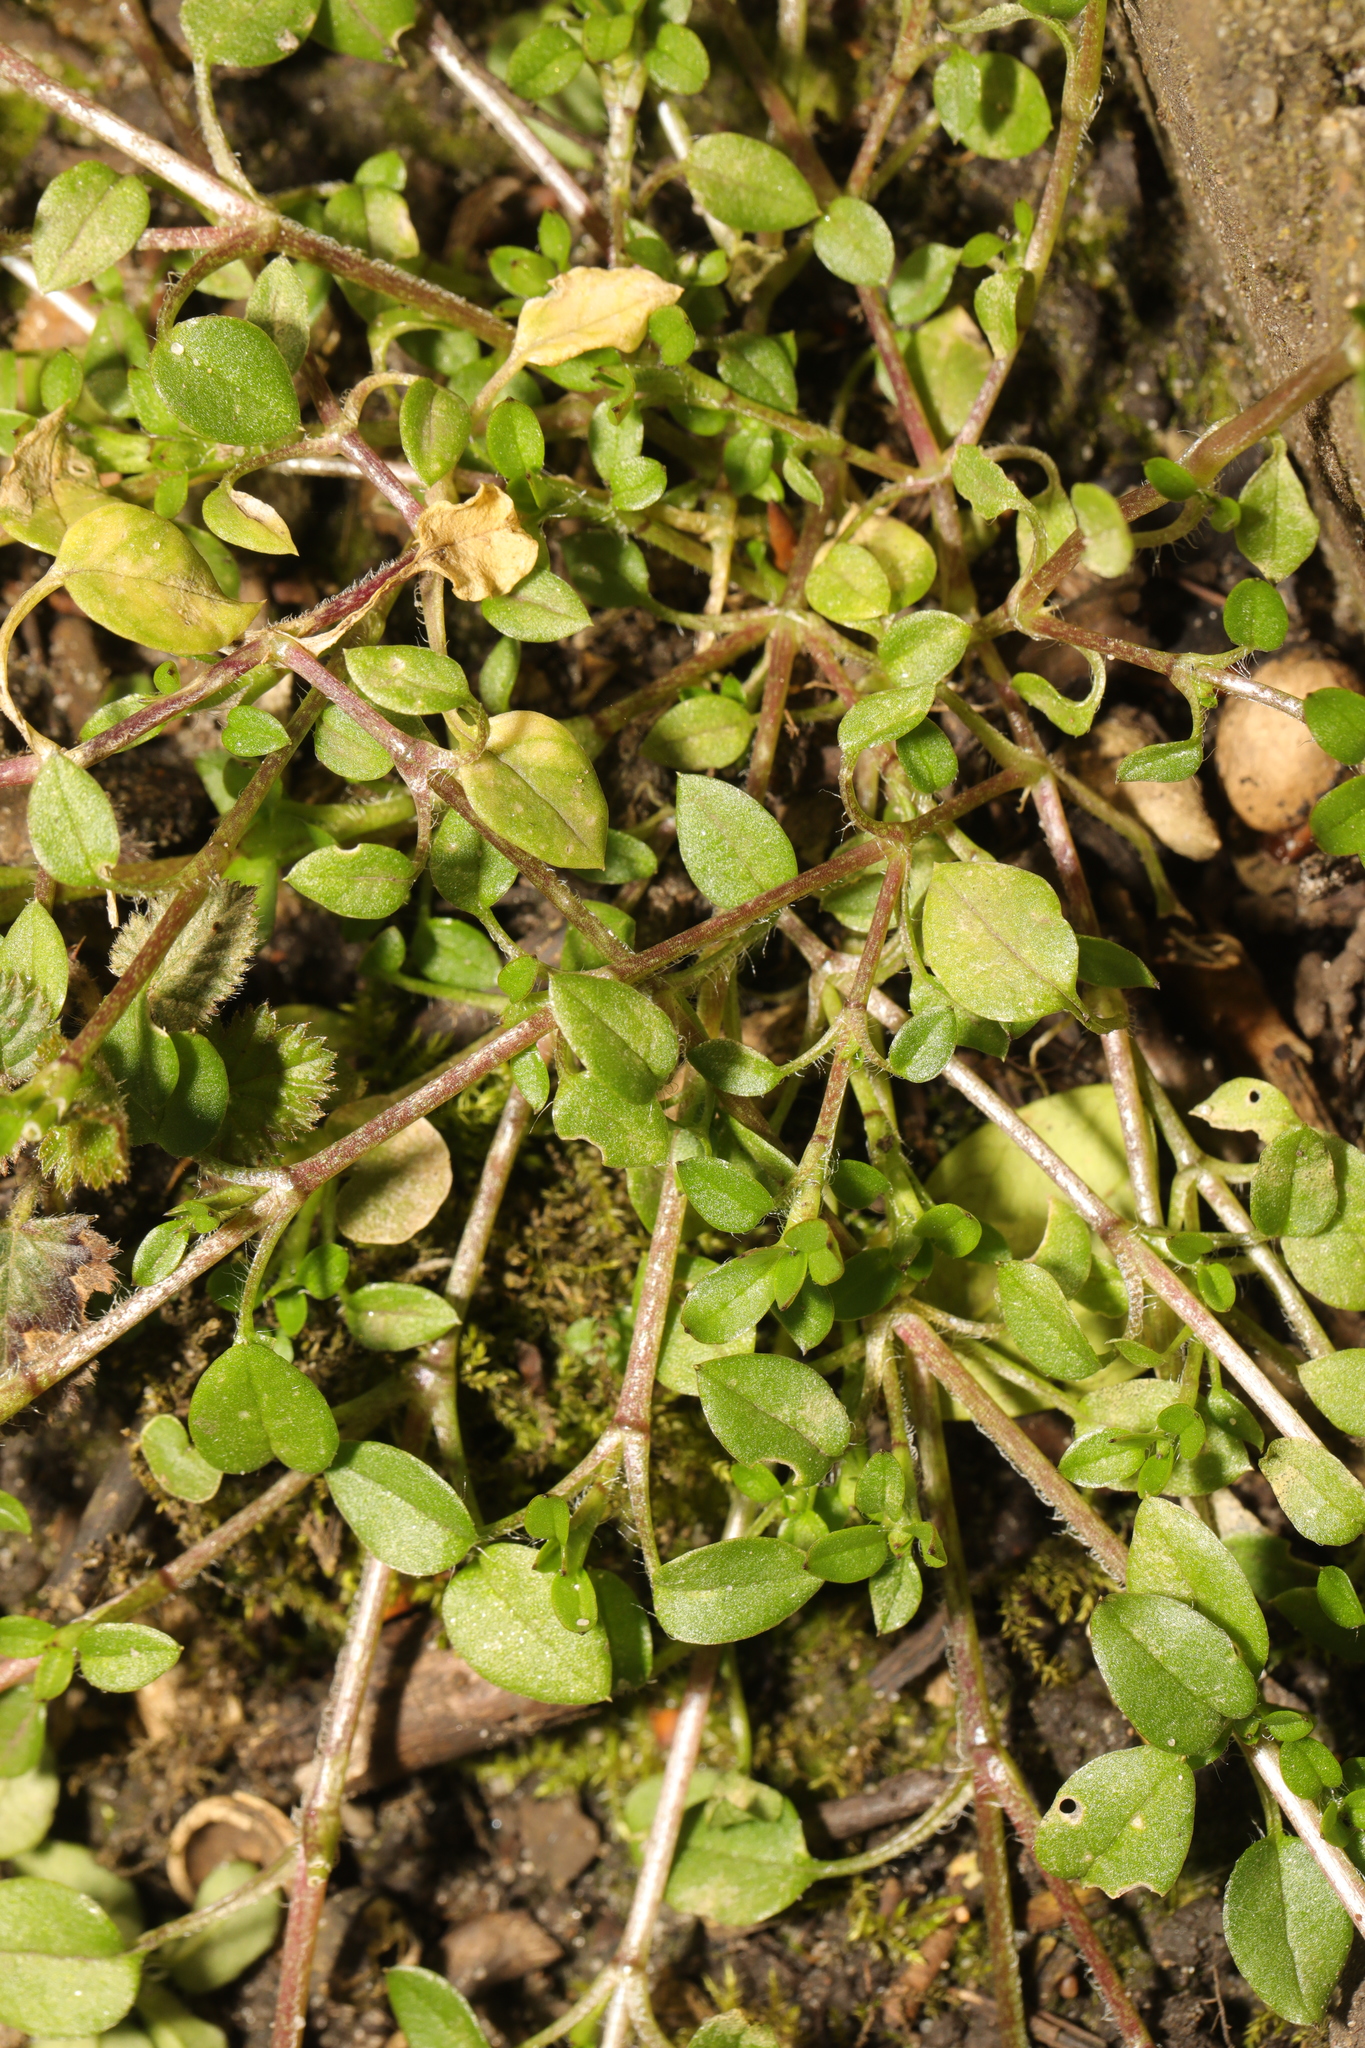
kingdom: Plantae
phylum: Tracheophyta
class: Magnoliopsida
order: Caryophyllales
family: Caryophyllaceae
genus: Stellaria
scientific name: Stellaria media
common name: Common chickweed
